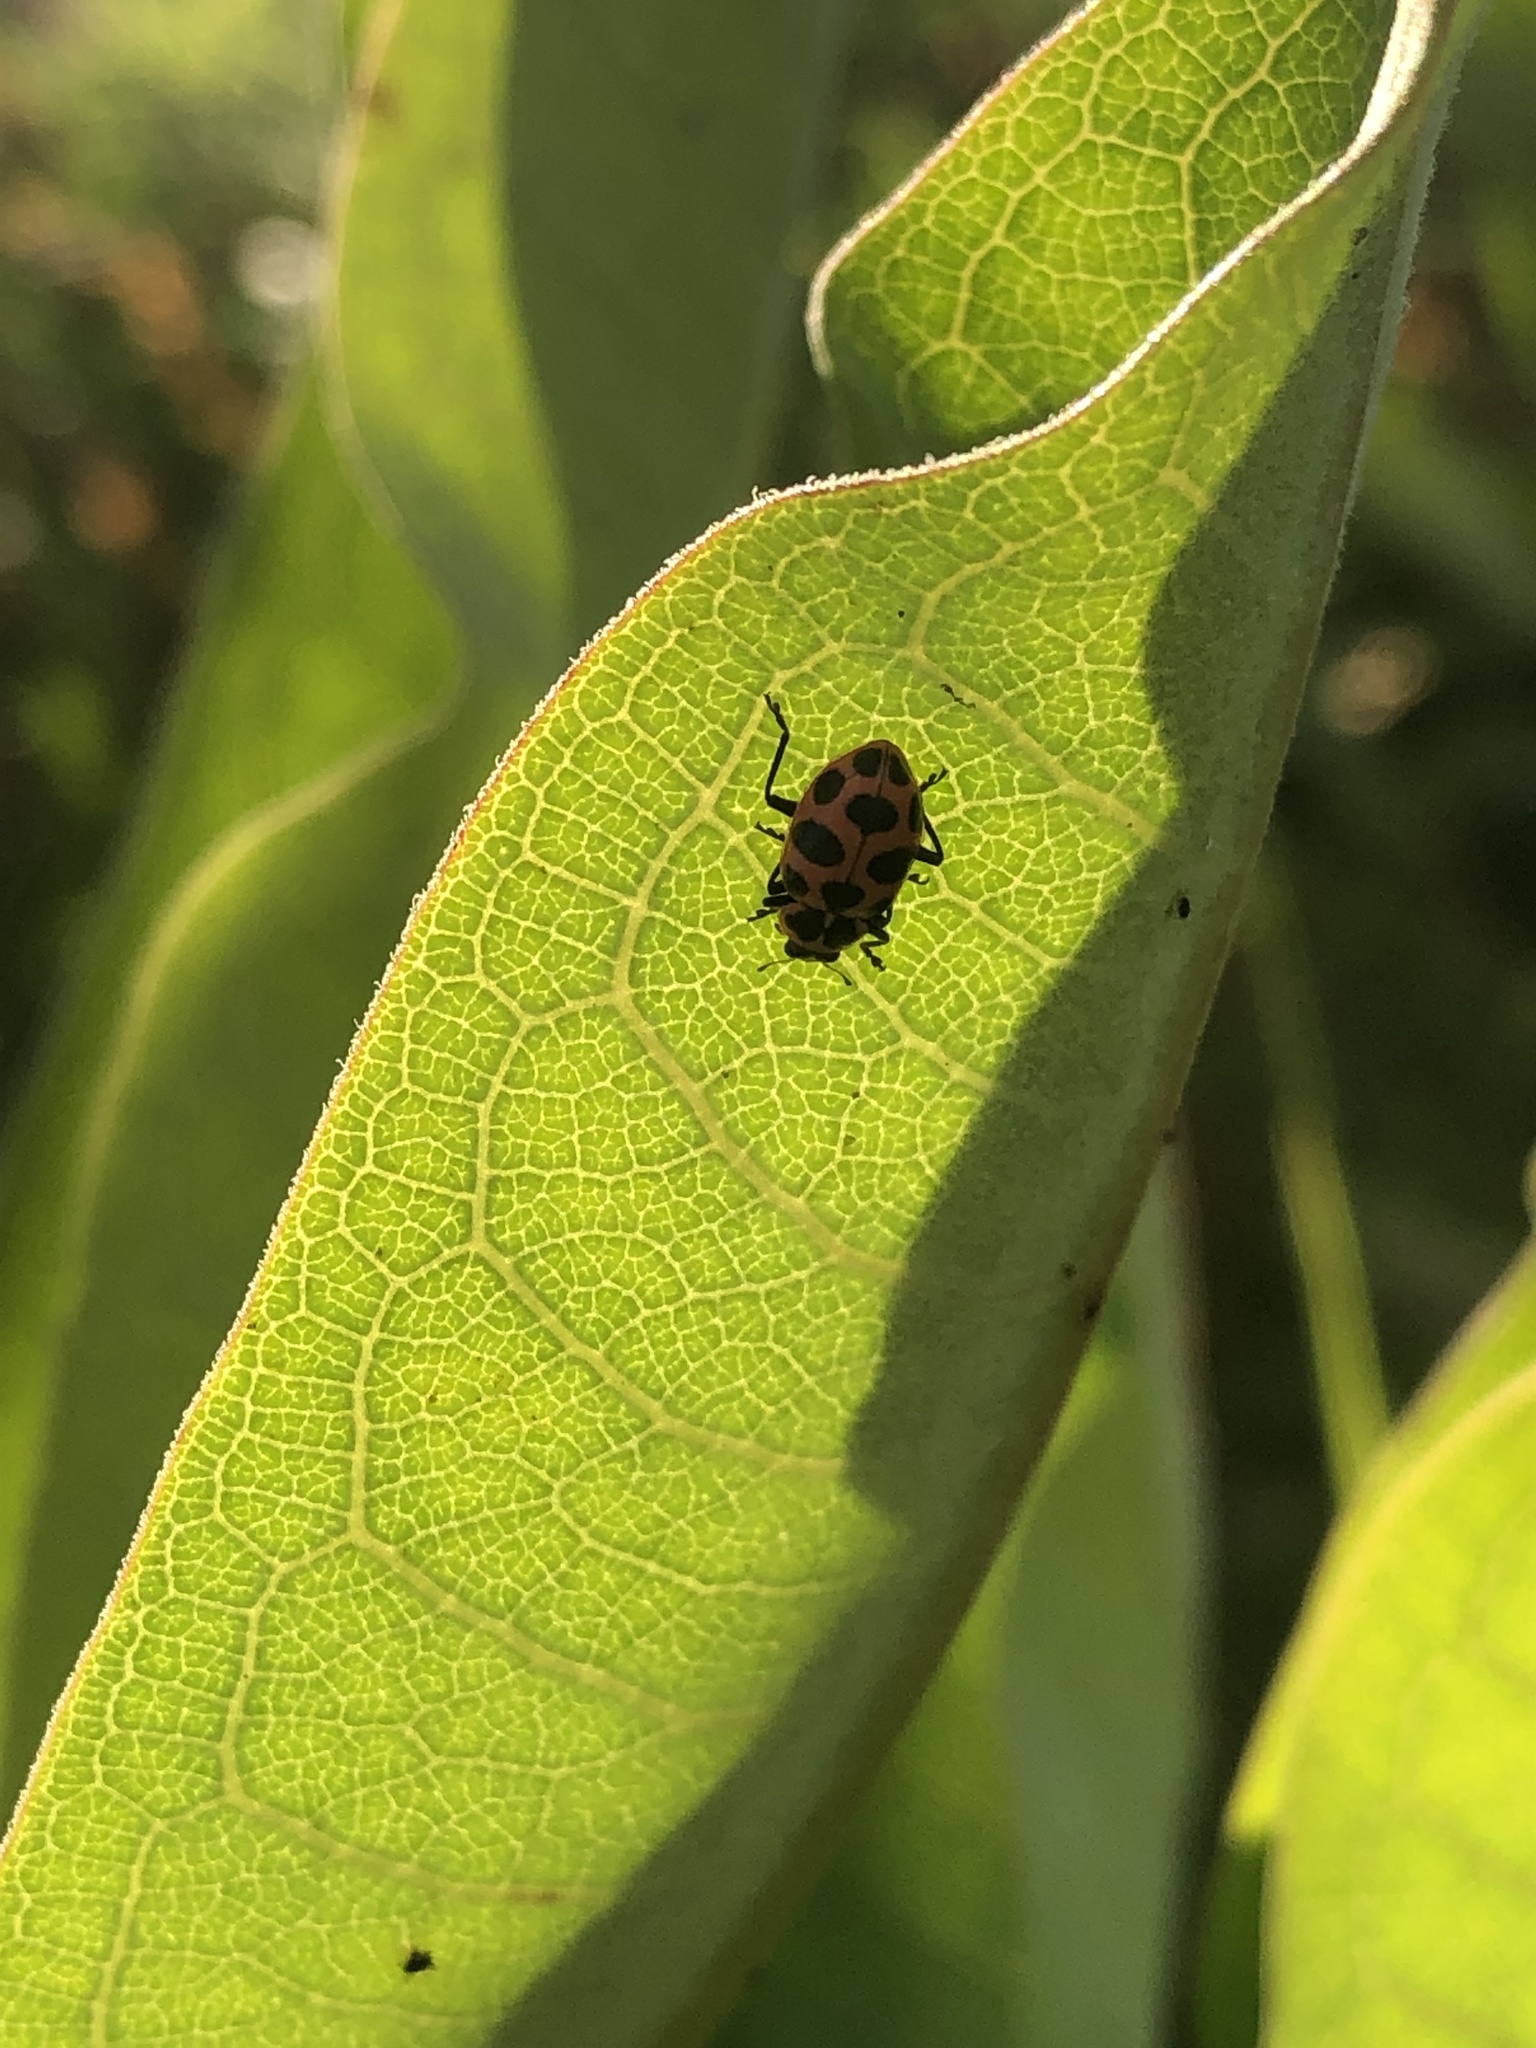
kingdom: Animalia
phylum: Arthropoda
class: Insecta
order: Coleoptera
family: Coccinellidae
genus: Coleomegilla
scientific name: Coleomegilla maculata
